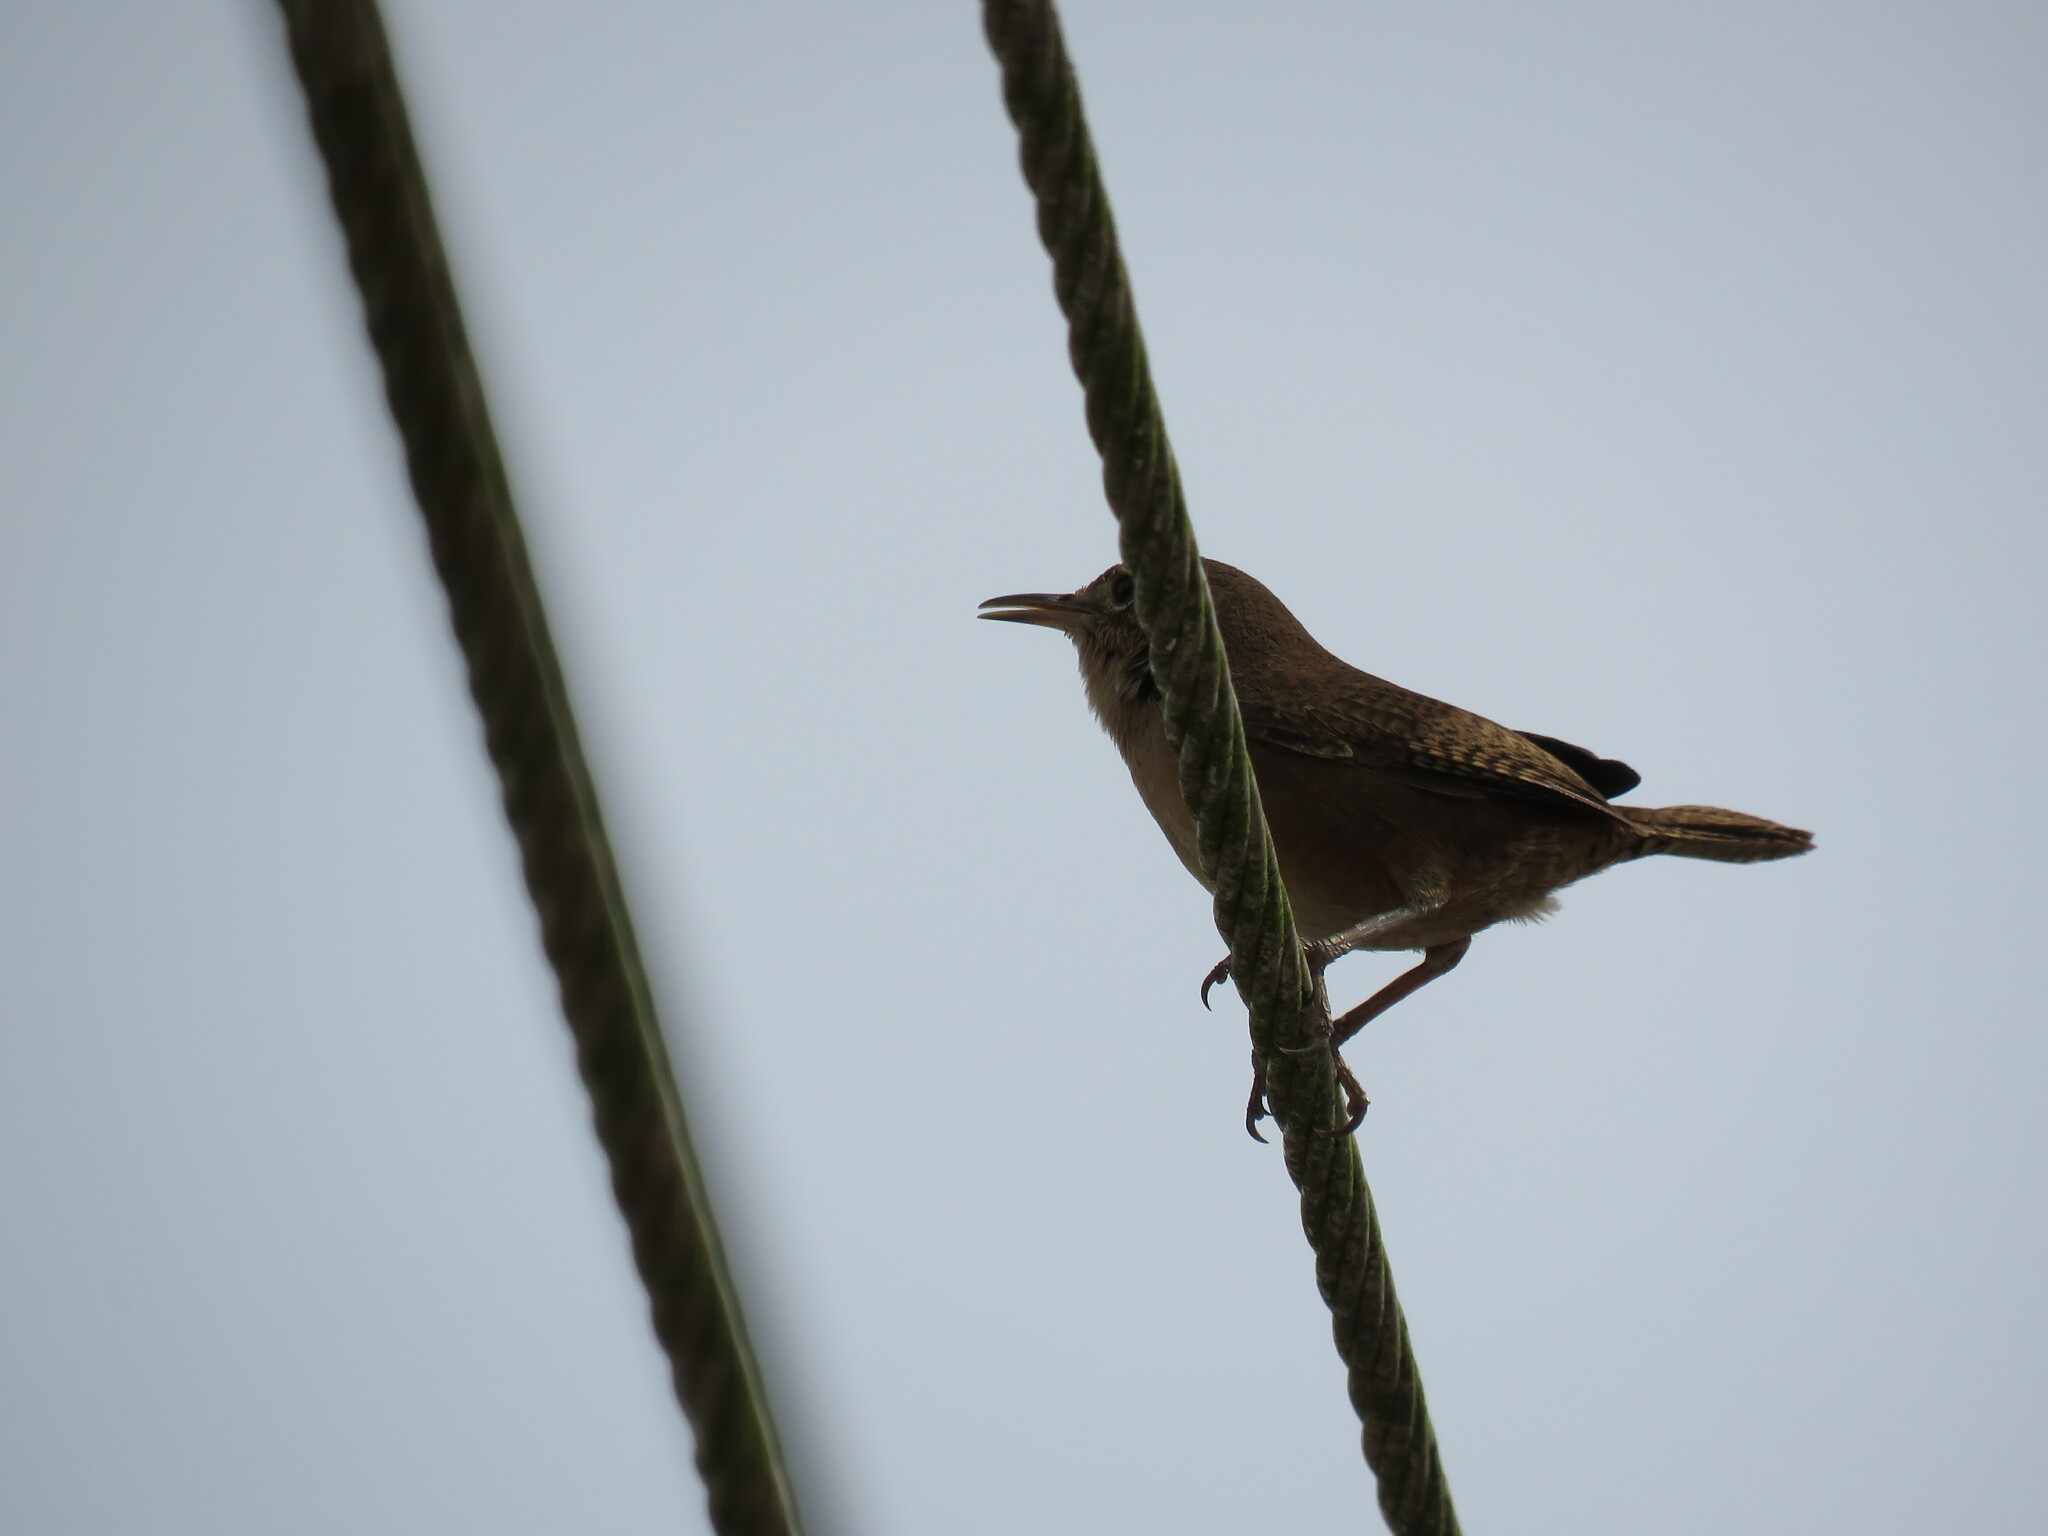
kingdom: Animalia
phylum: Chordata
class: Aves
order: Passeriformes
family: Troglodytidae
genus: Troglodytes
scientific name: Troglodytes aedon
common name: House wren
